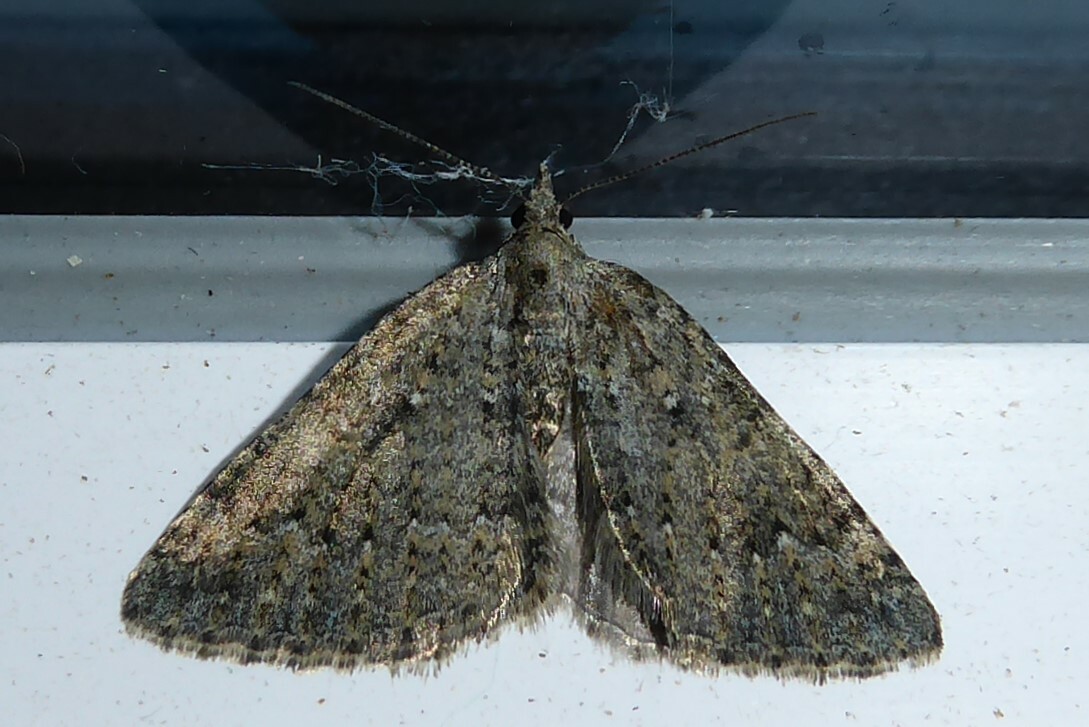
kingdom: Animalia
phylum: Arthropoda
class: Insecta
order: Lepidoptera
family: Geometridae
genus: Helastia
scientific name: Helastia corcularia
